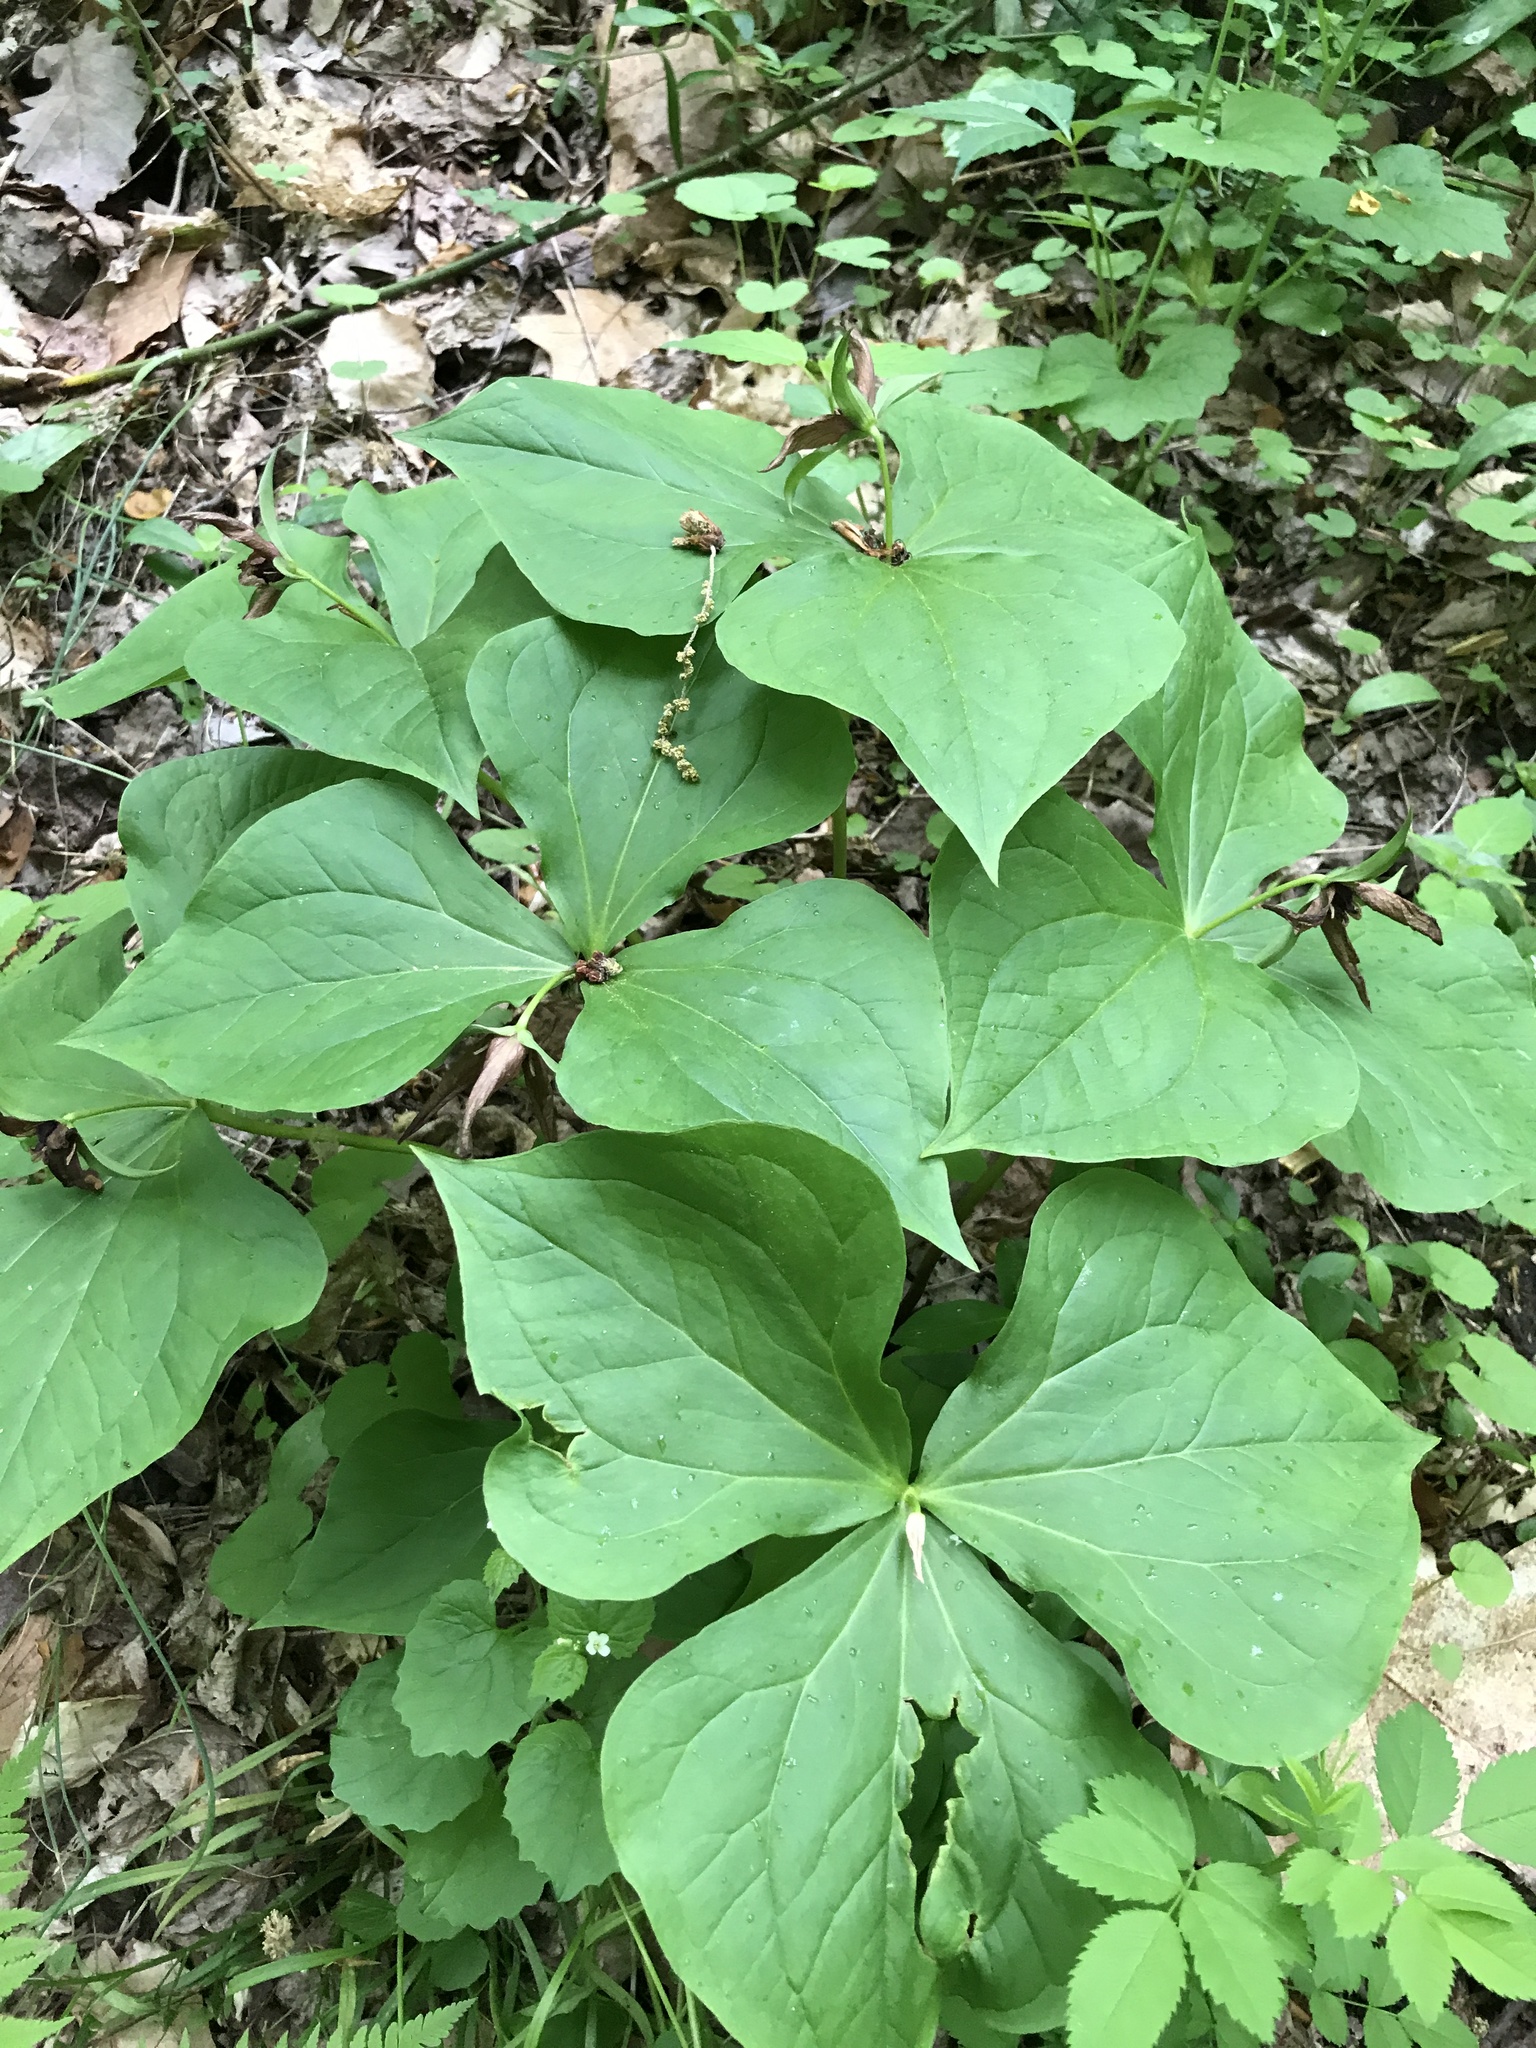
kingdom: Plantae
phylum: Tracheophyta
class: Liliopsida
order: Liliales
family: Melanthiaceae
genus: Trillium
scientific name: Trillium erectum
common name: Purple trillium
